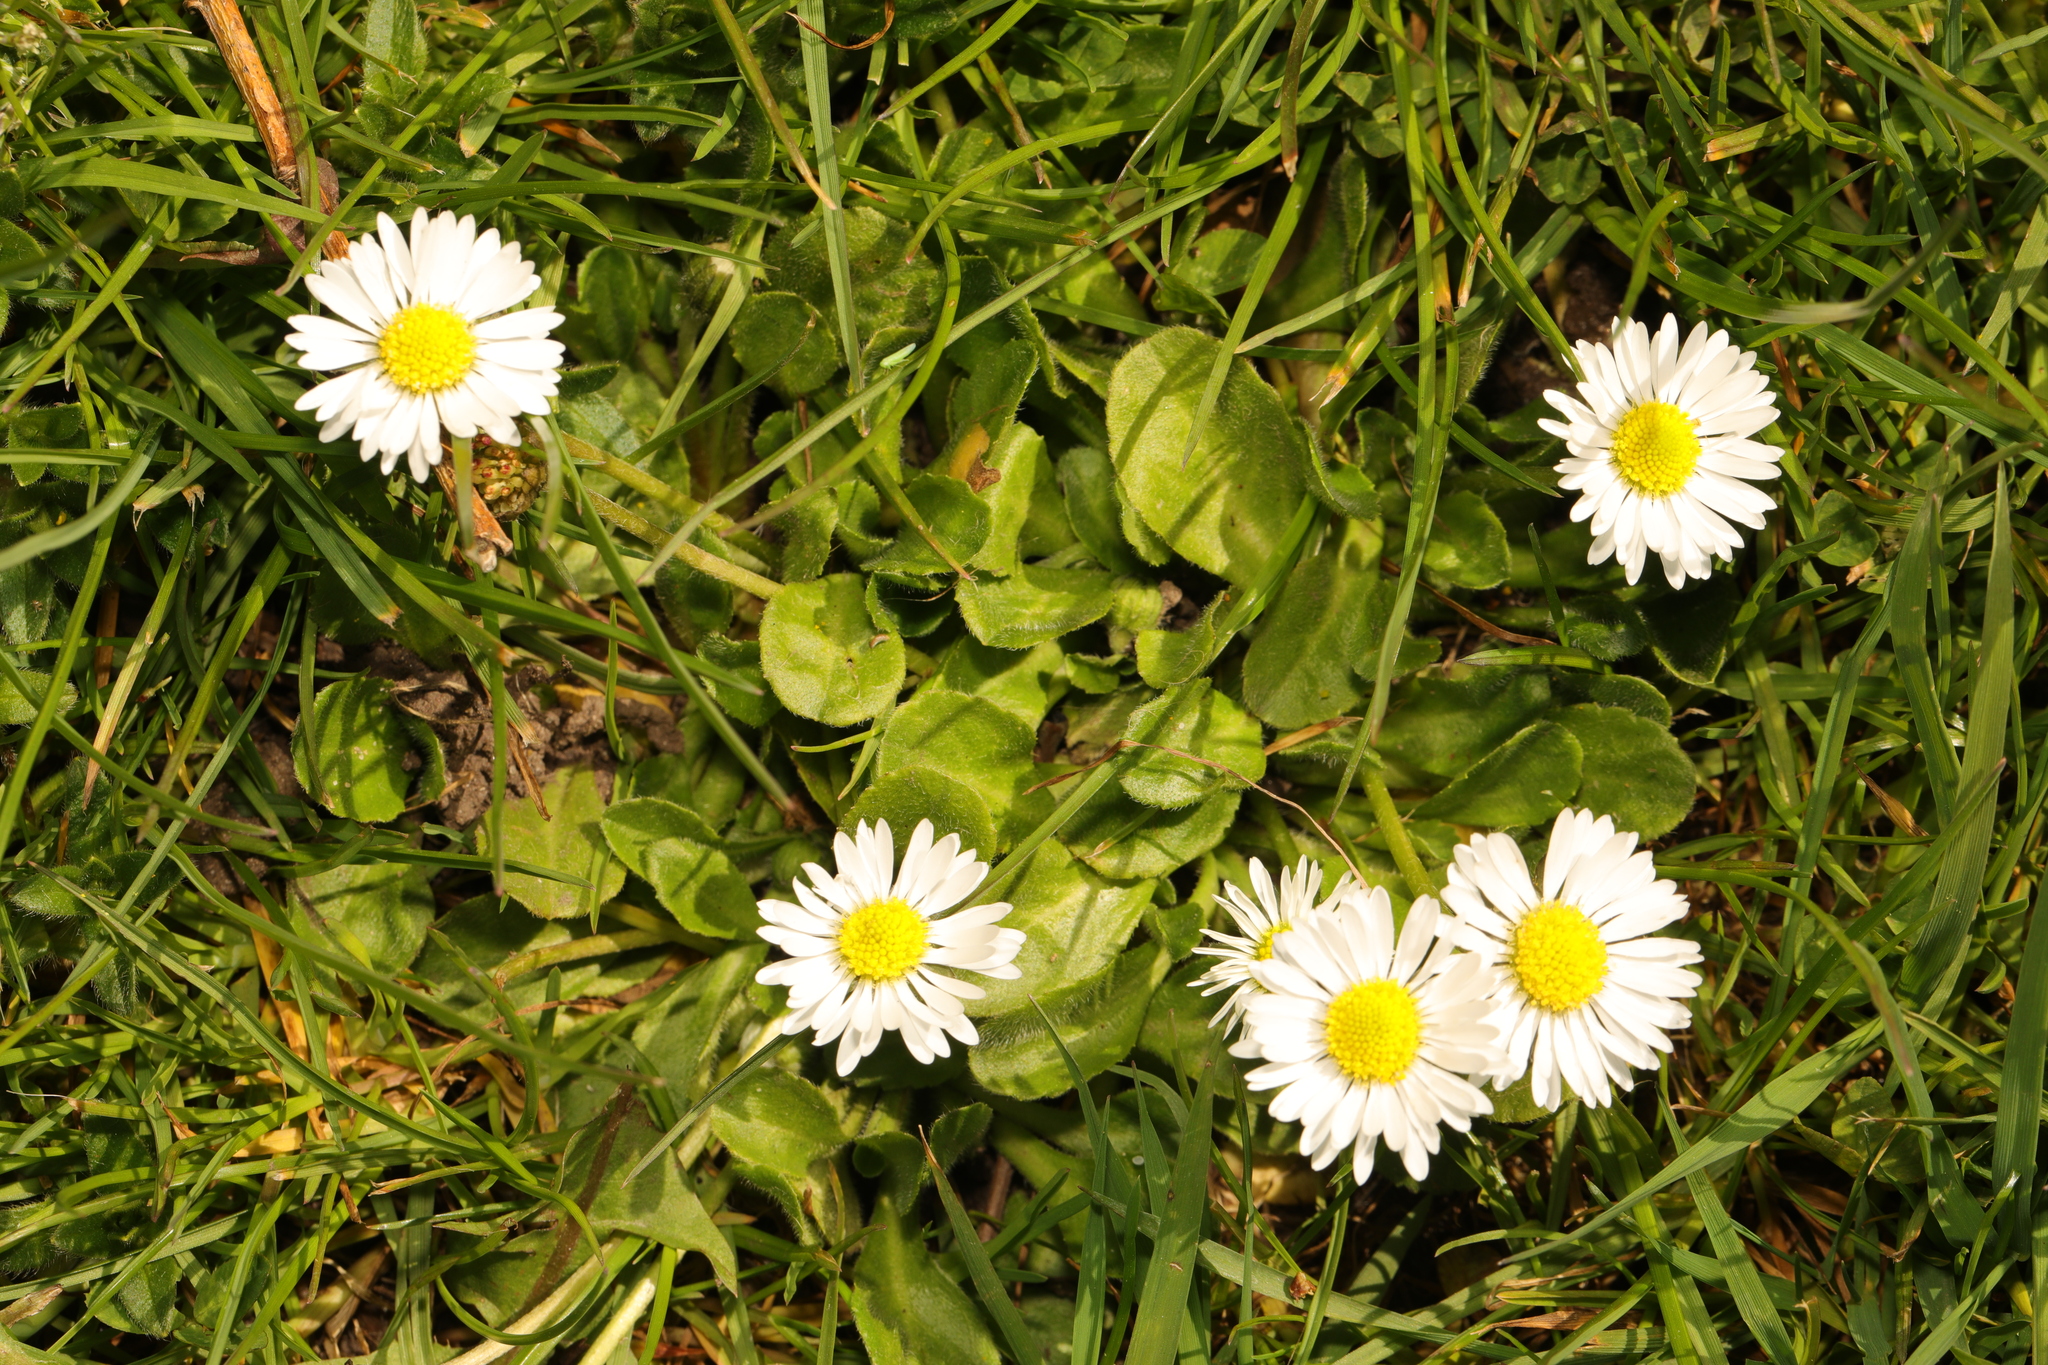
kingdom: Plantae
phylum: Tracheophyta
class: Magnoliopsida
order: Asterales
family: Asteraceae
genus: Bellis
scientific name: Bellis perennis
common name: Lawndaisy
